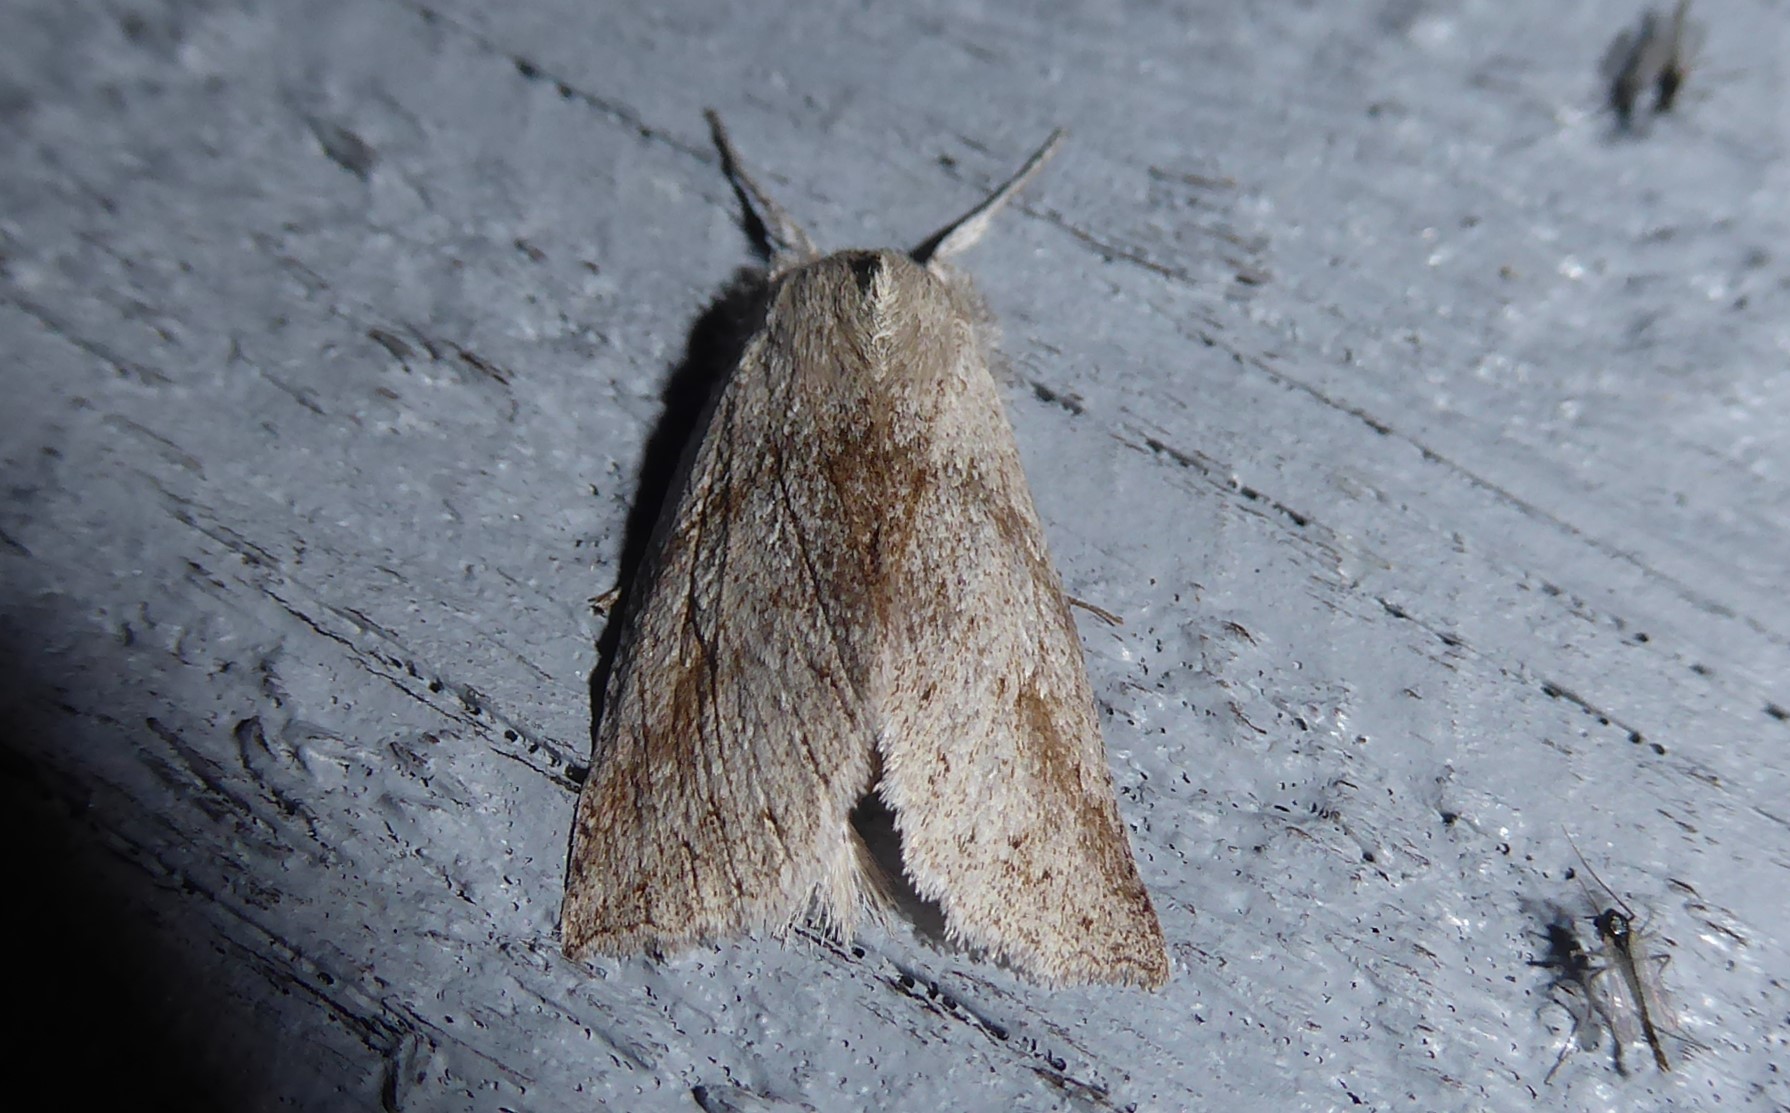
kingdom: Animalia
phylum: Arthropoda
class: Insecta
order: Lepidoptera
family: Geometridae
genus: Declana
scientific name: Declana leptomera
